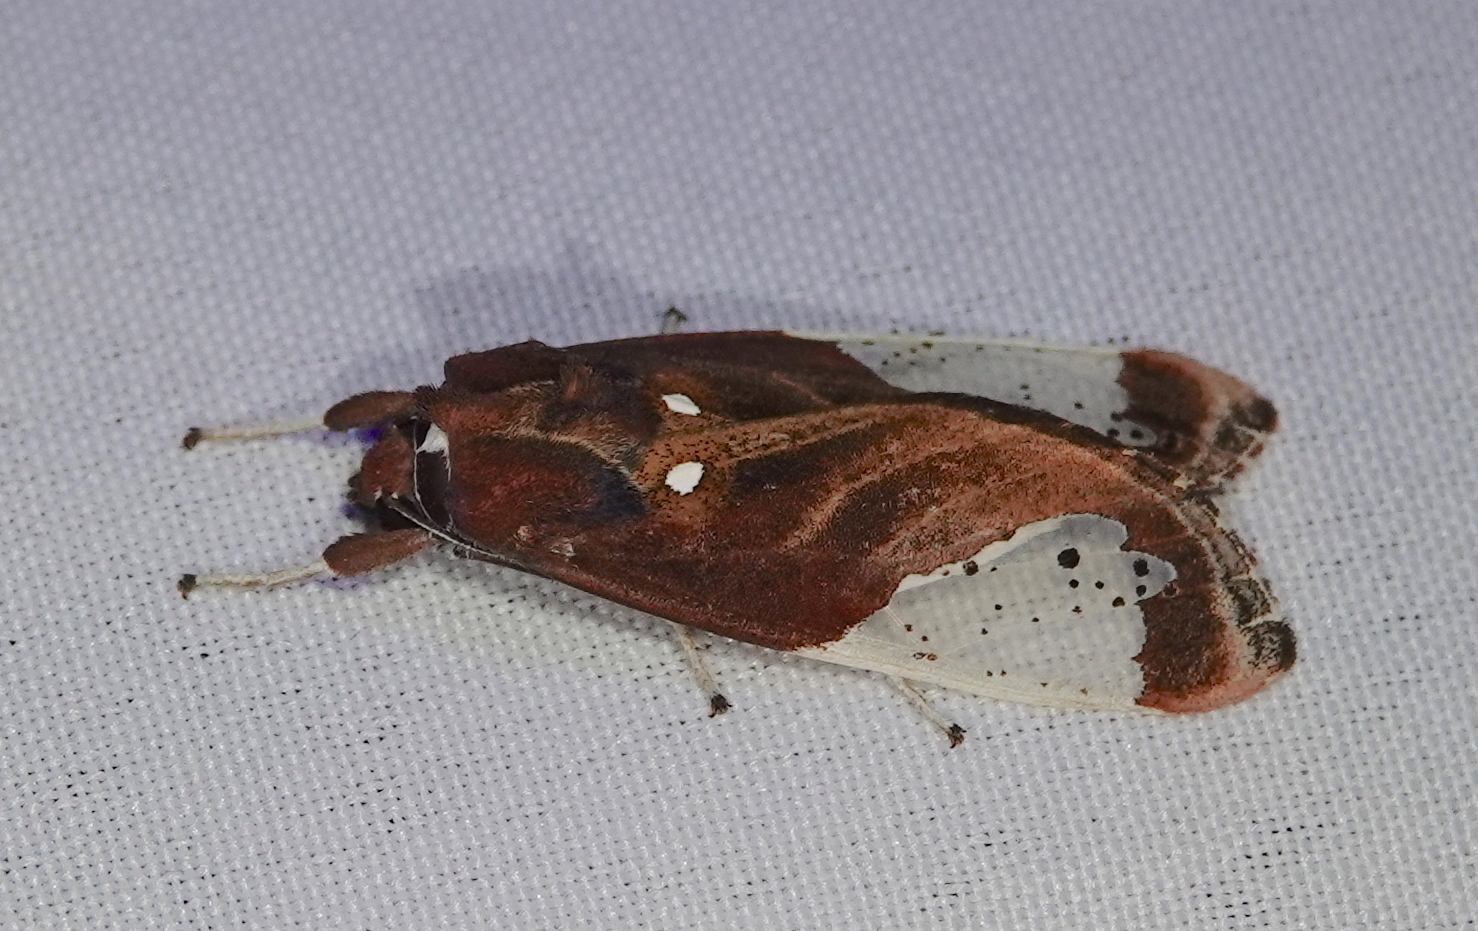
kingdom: Animalia
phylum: Arthropoda
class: Insecta
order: Lepidoptera
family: Erebidae
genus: Bertholdia
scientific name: Bertholdia albipuncta
